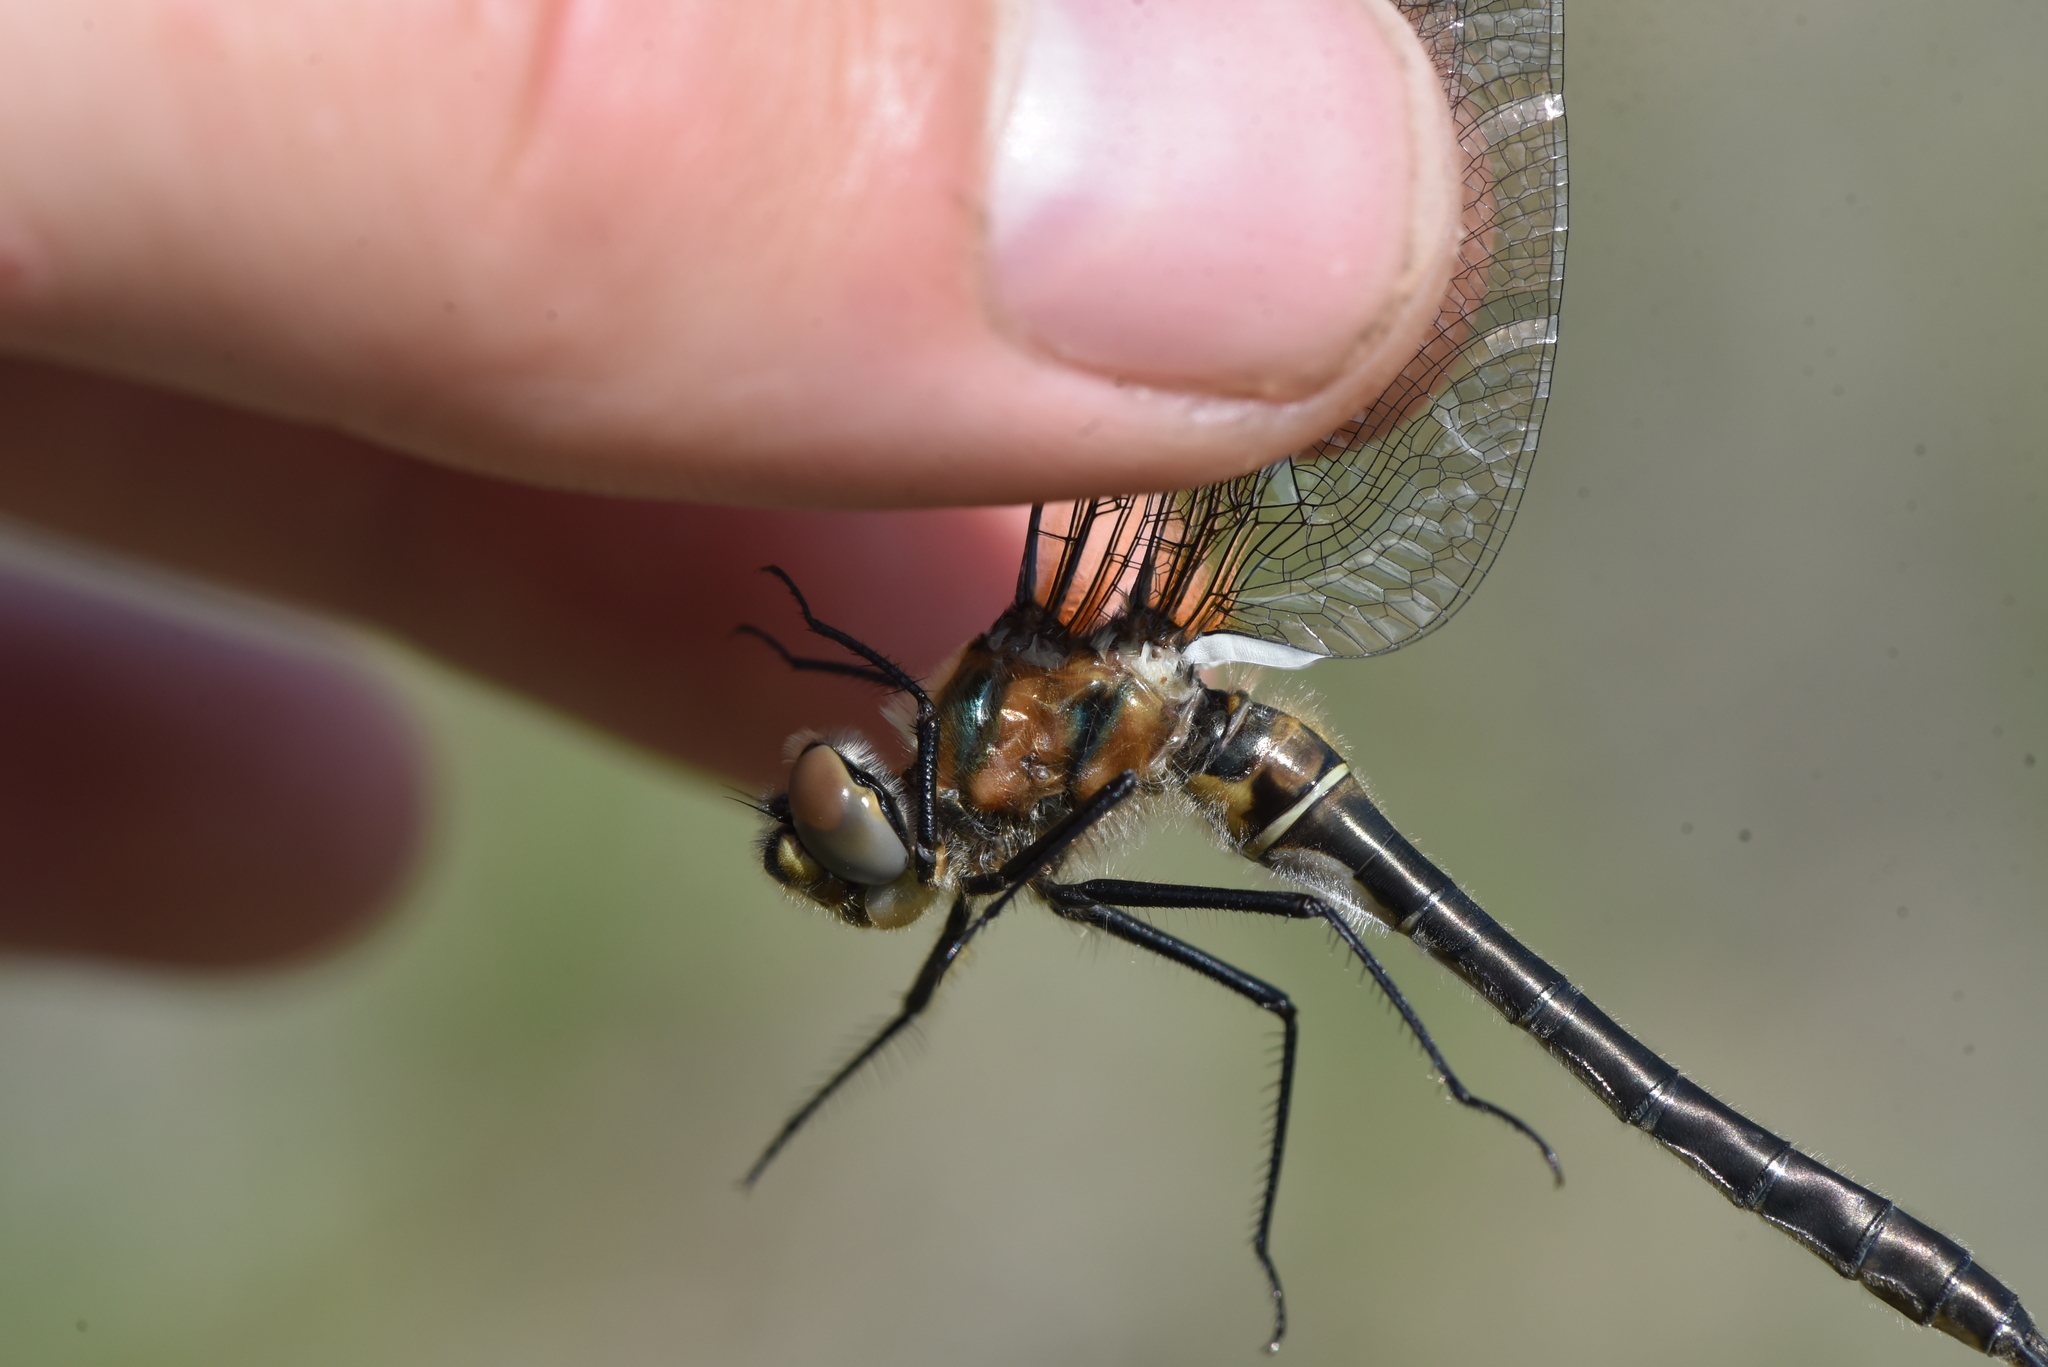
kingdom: Animalia
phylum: Arthropoda
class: Insecta
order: Odonata
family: Corduliidae
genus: Cordulia
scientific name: Cordulia shurtleffii
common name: American emerald
